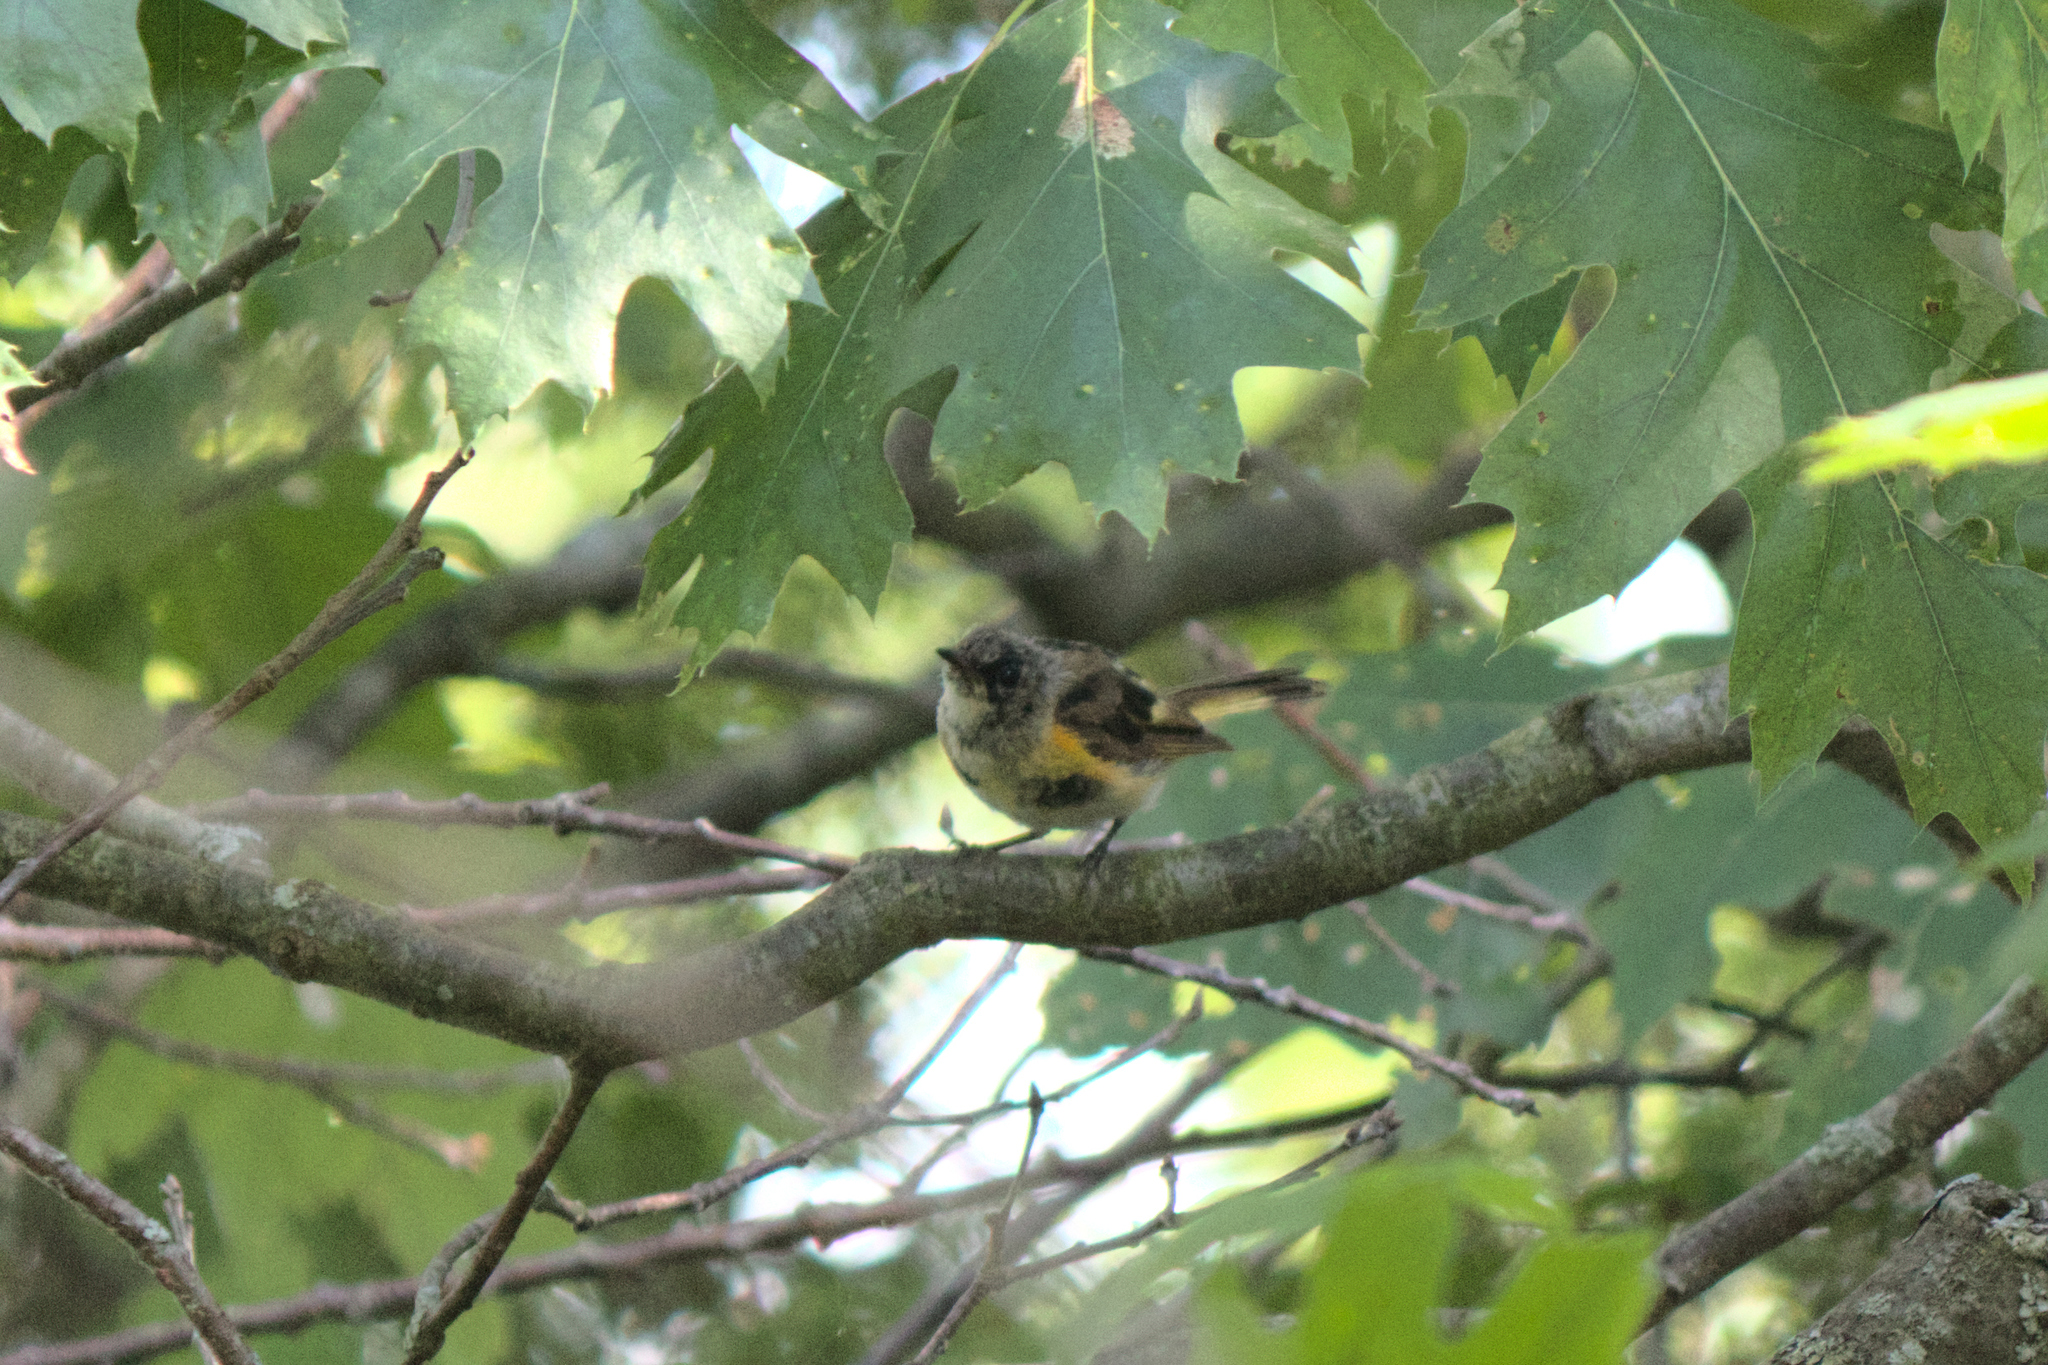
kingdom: Animalia
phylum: Chordata
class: Aves
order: Passeriformes
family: Parulidae
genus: Setophaga
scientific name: Setophaga ruticilla
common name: American redstart
